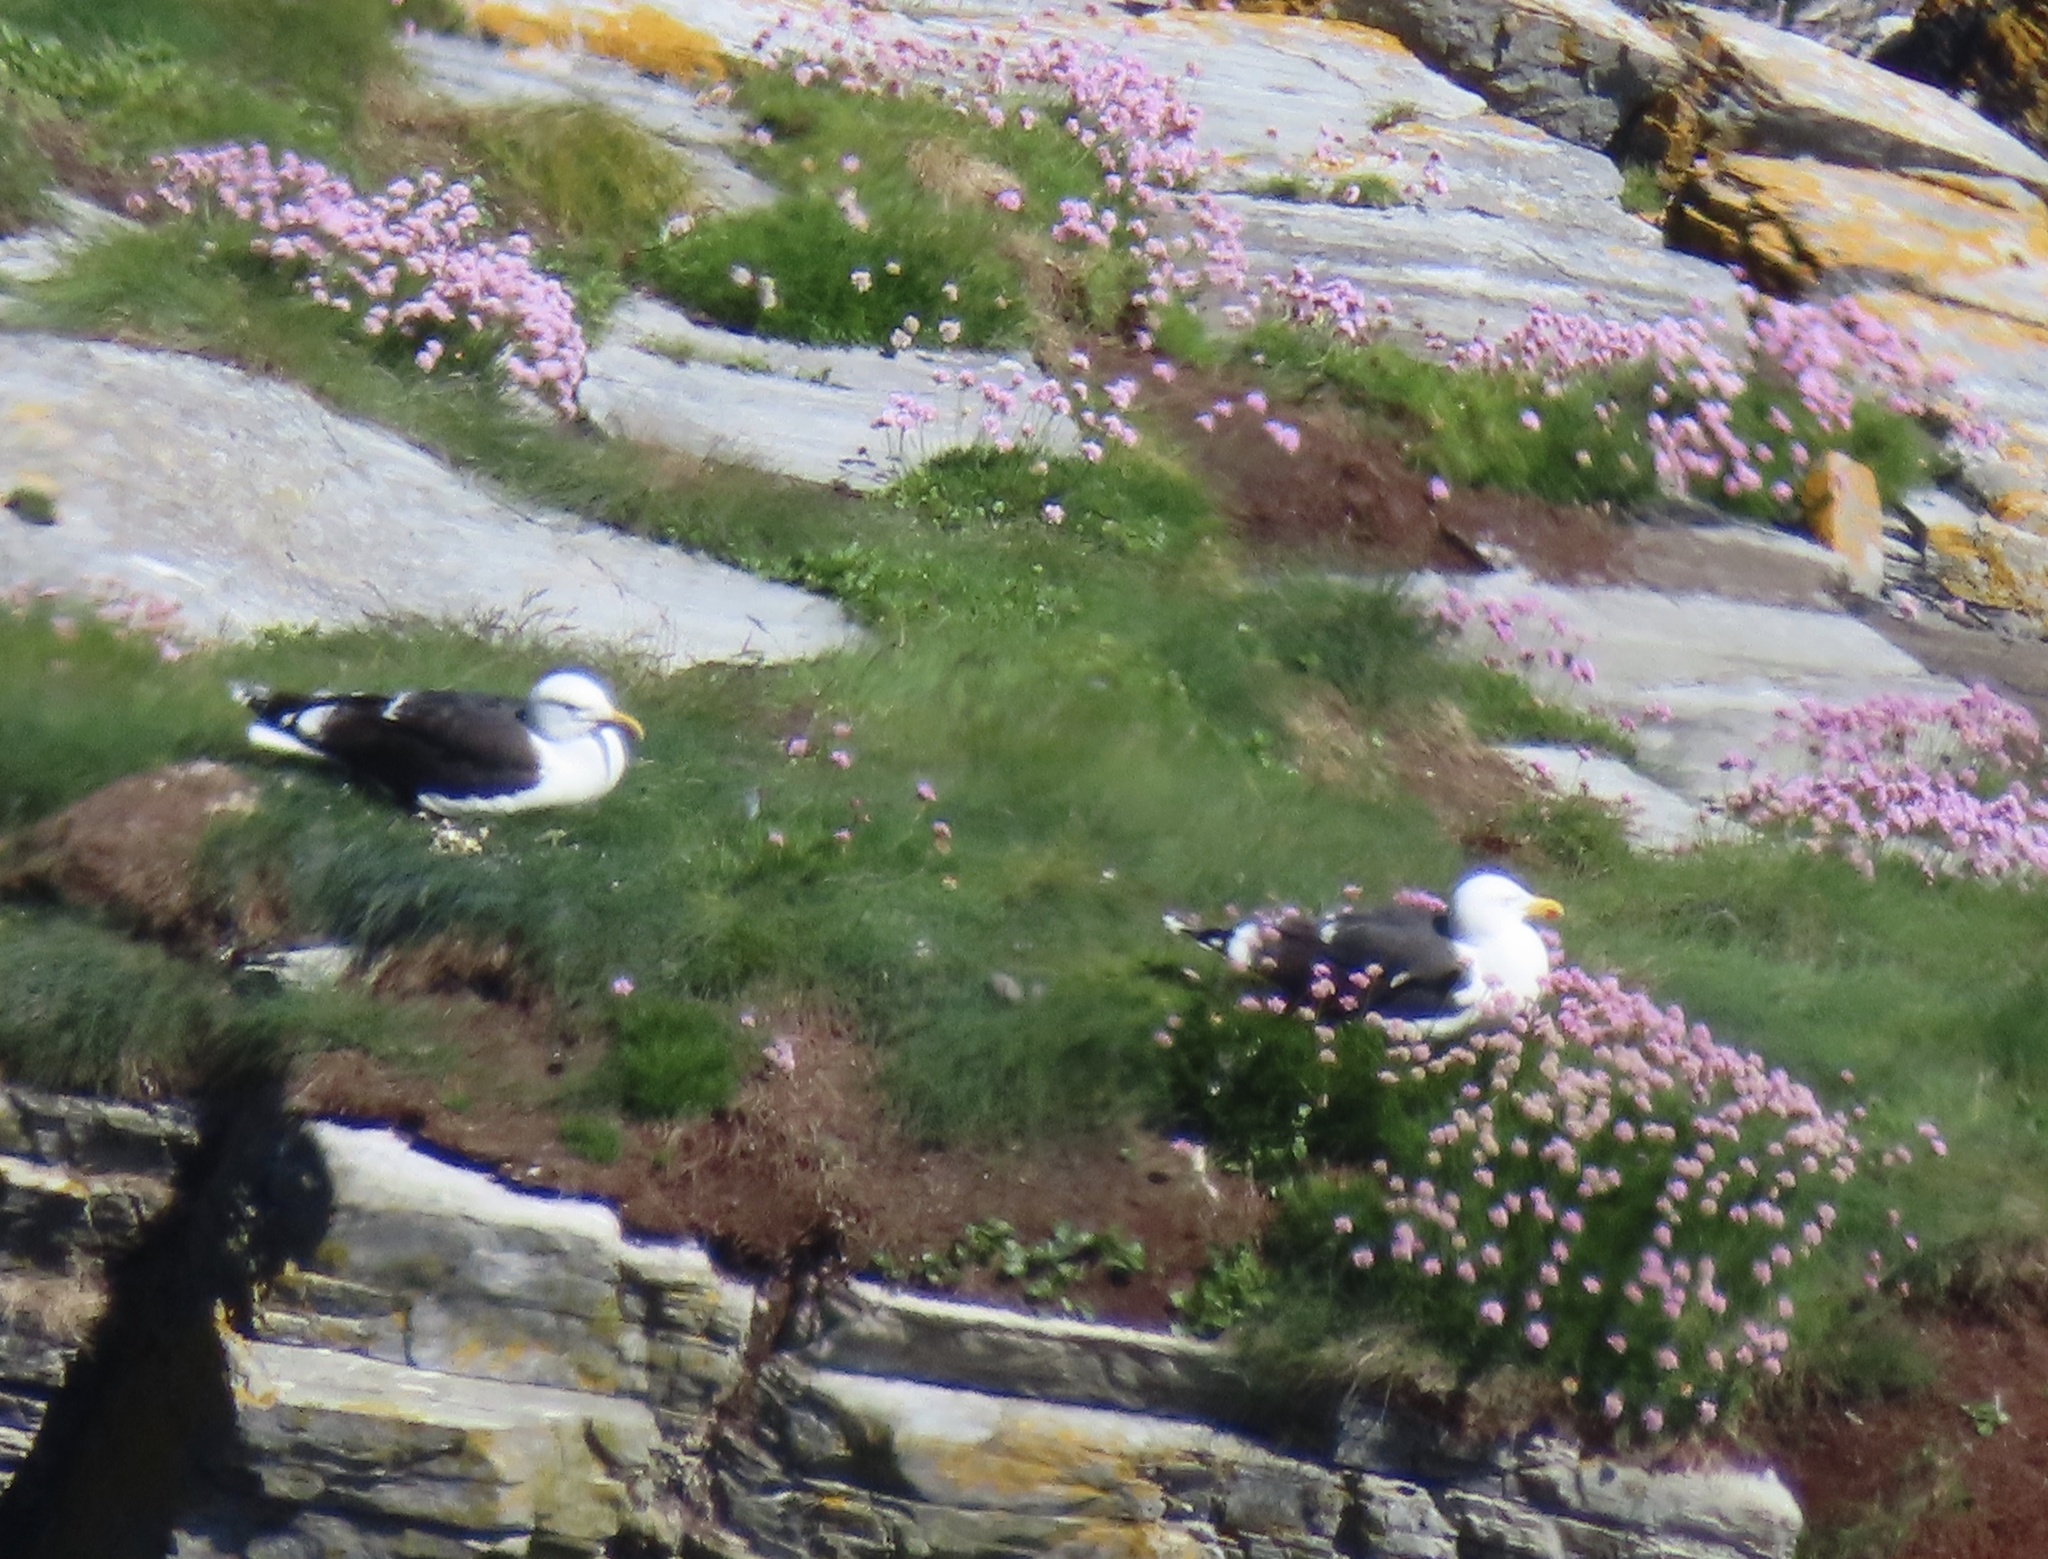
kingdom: Animalia
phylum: Chordata
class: Aves
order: Charadriiformes
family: Laridae
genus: Larus
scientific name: Larus marinus
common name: Great black-backed gull
